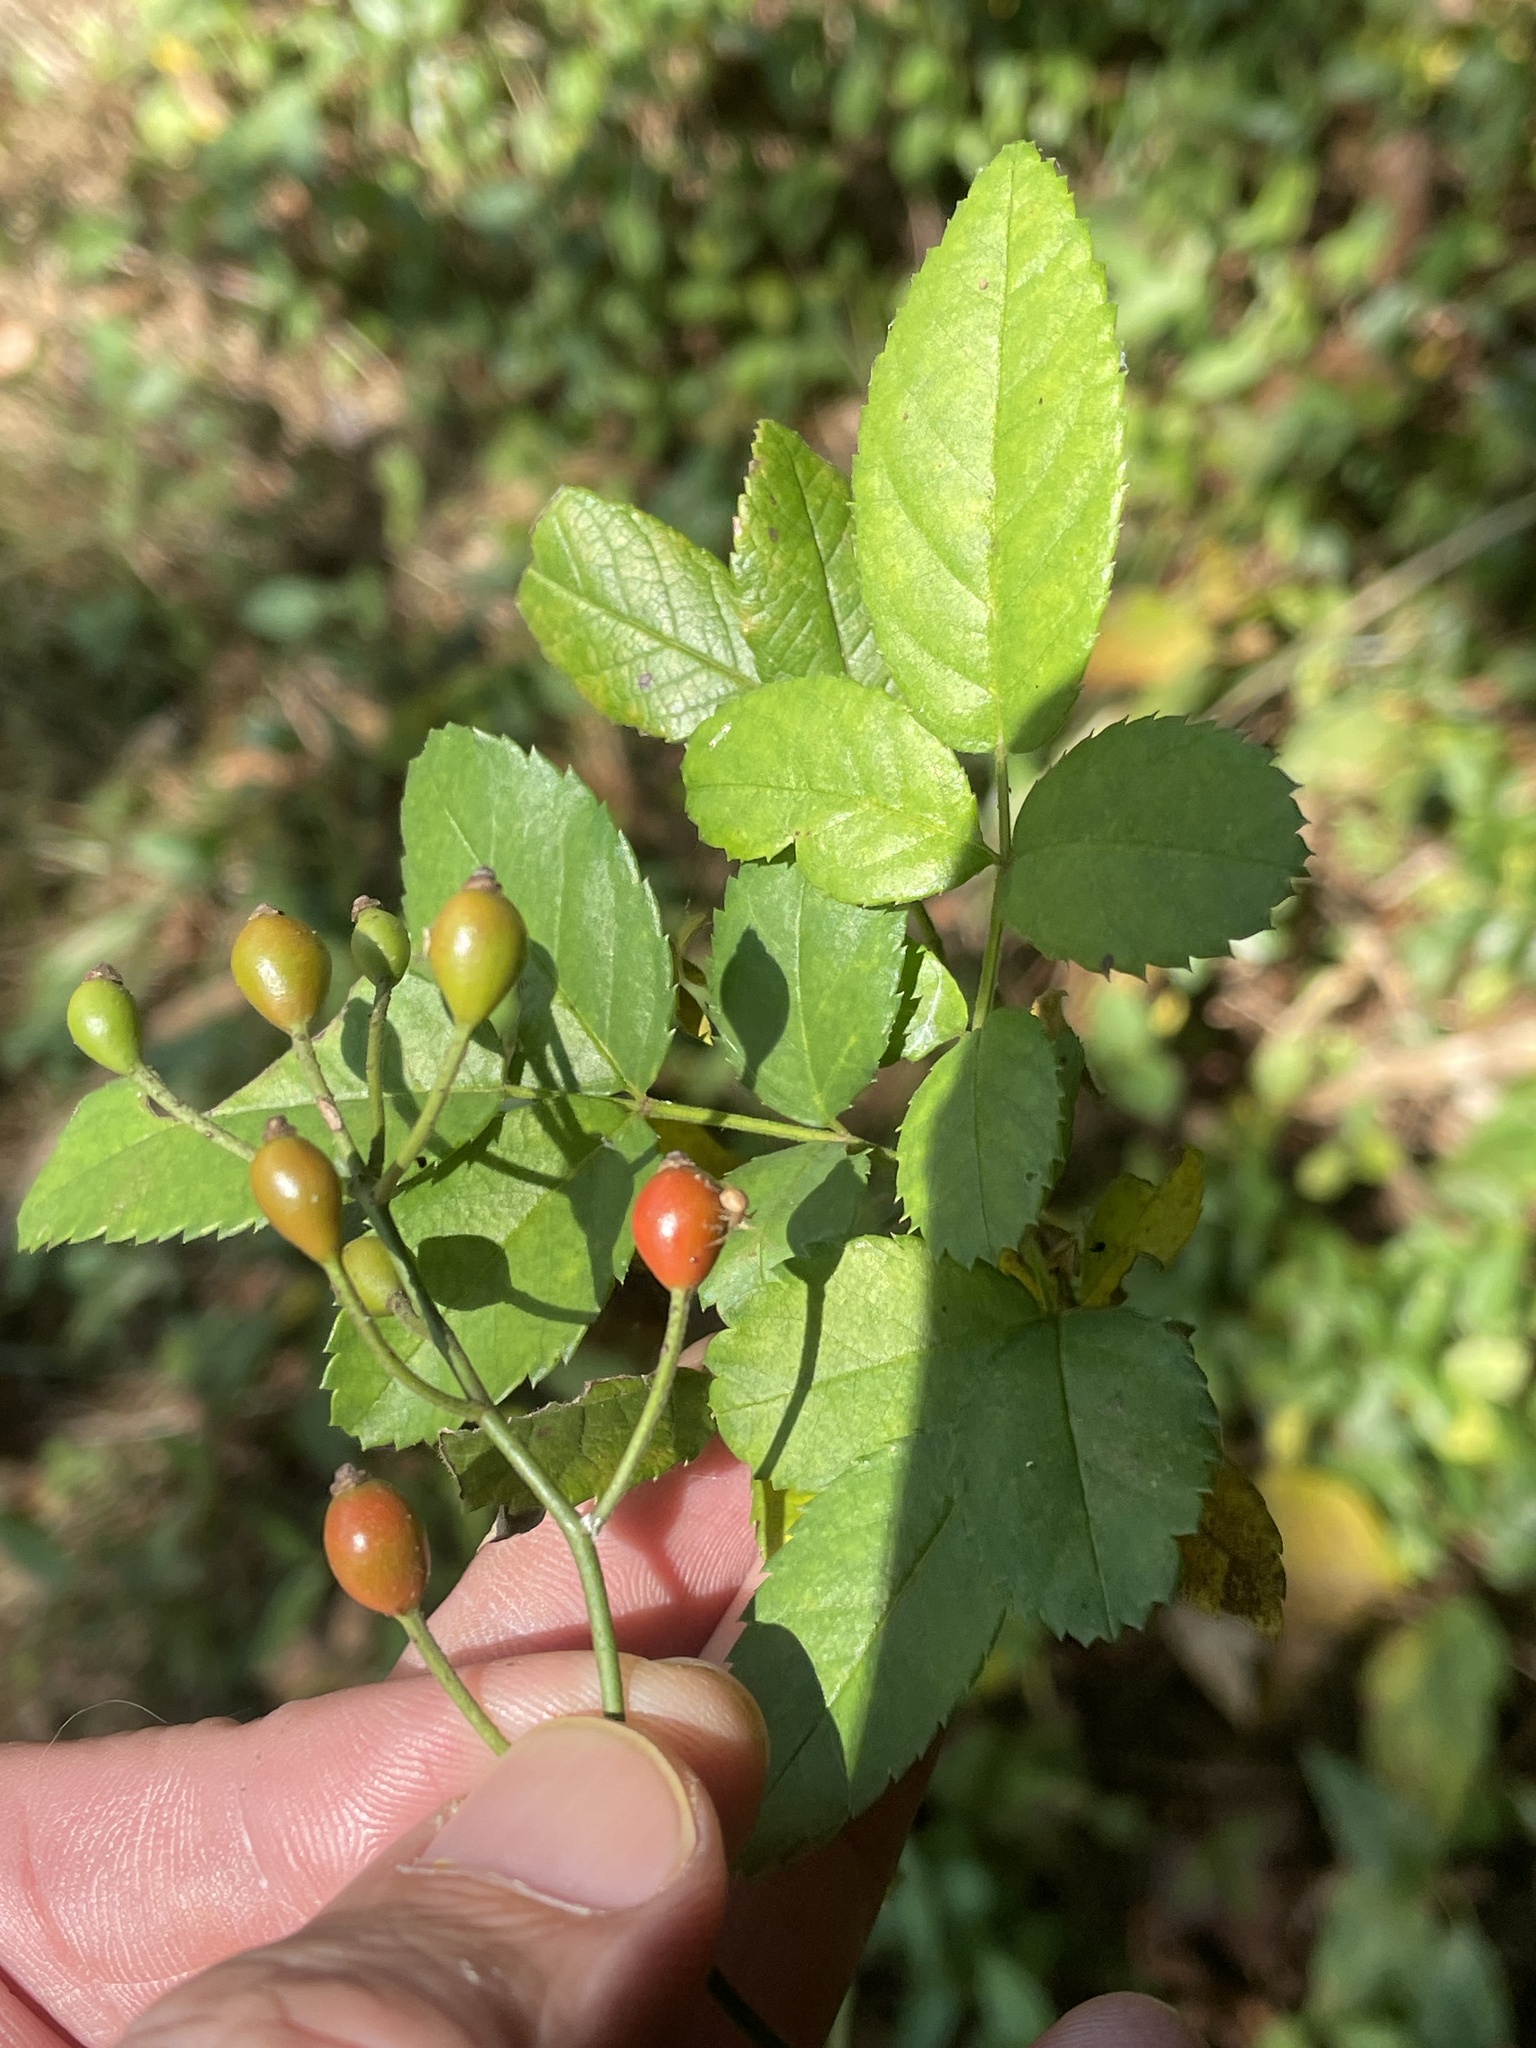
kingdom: Plantae
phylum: Tracheophyta
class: Magnoliopsida
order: Rosales
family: Rosaceae
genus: Rosa
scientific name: Rosa multiflora
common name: Multiflora rose
